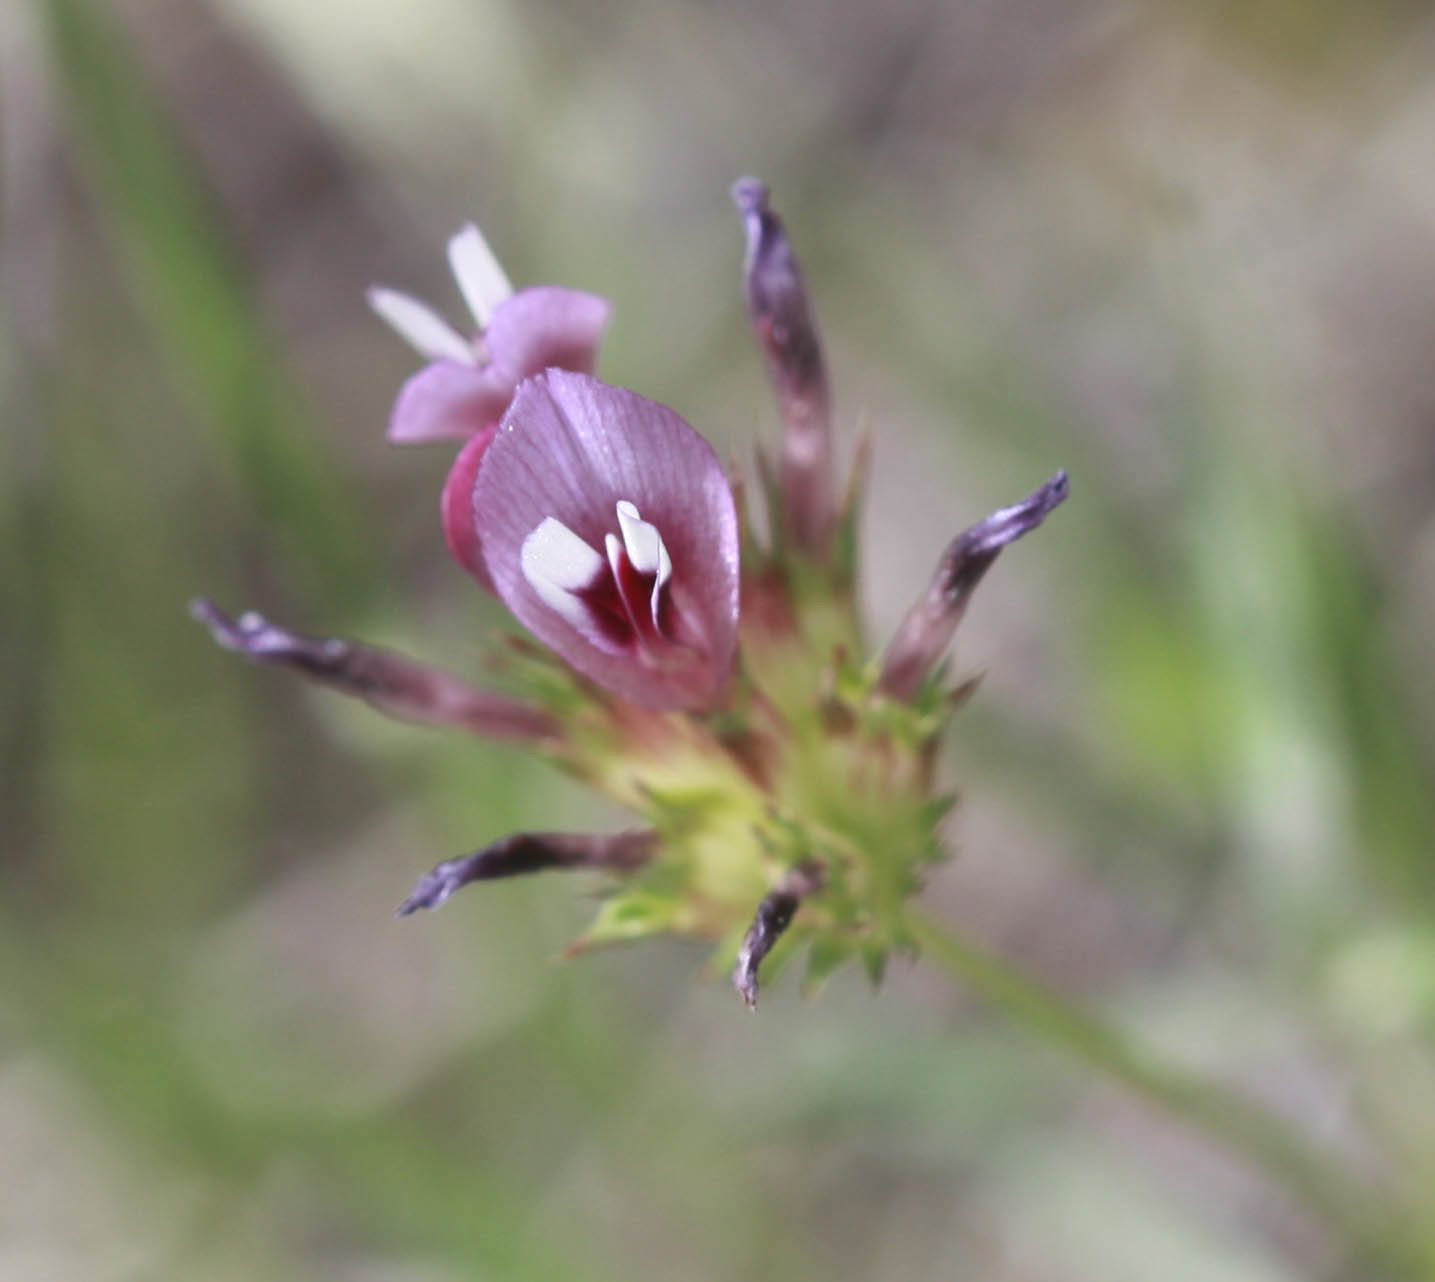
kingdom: Plantae
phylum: Tracheophyta
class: Magnoliopsida
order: Fabales
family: Fabaceae
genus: Trifolium
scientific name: Trifolium willdenovii
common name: Tomcat clover
